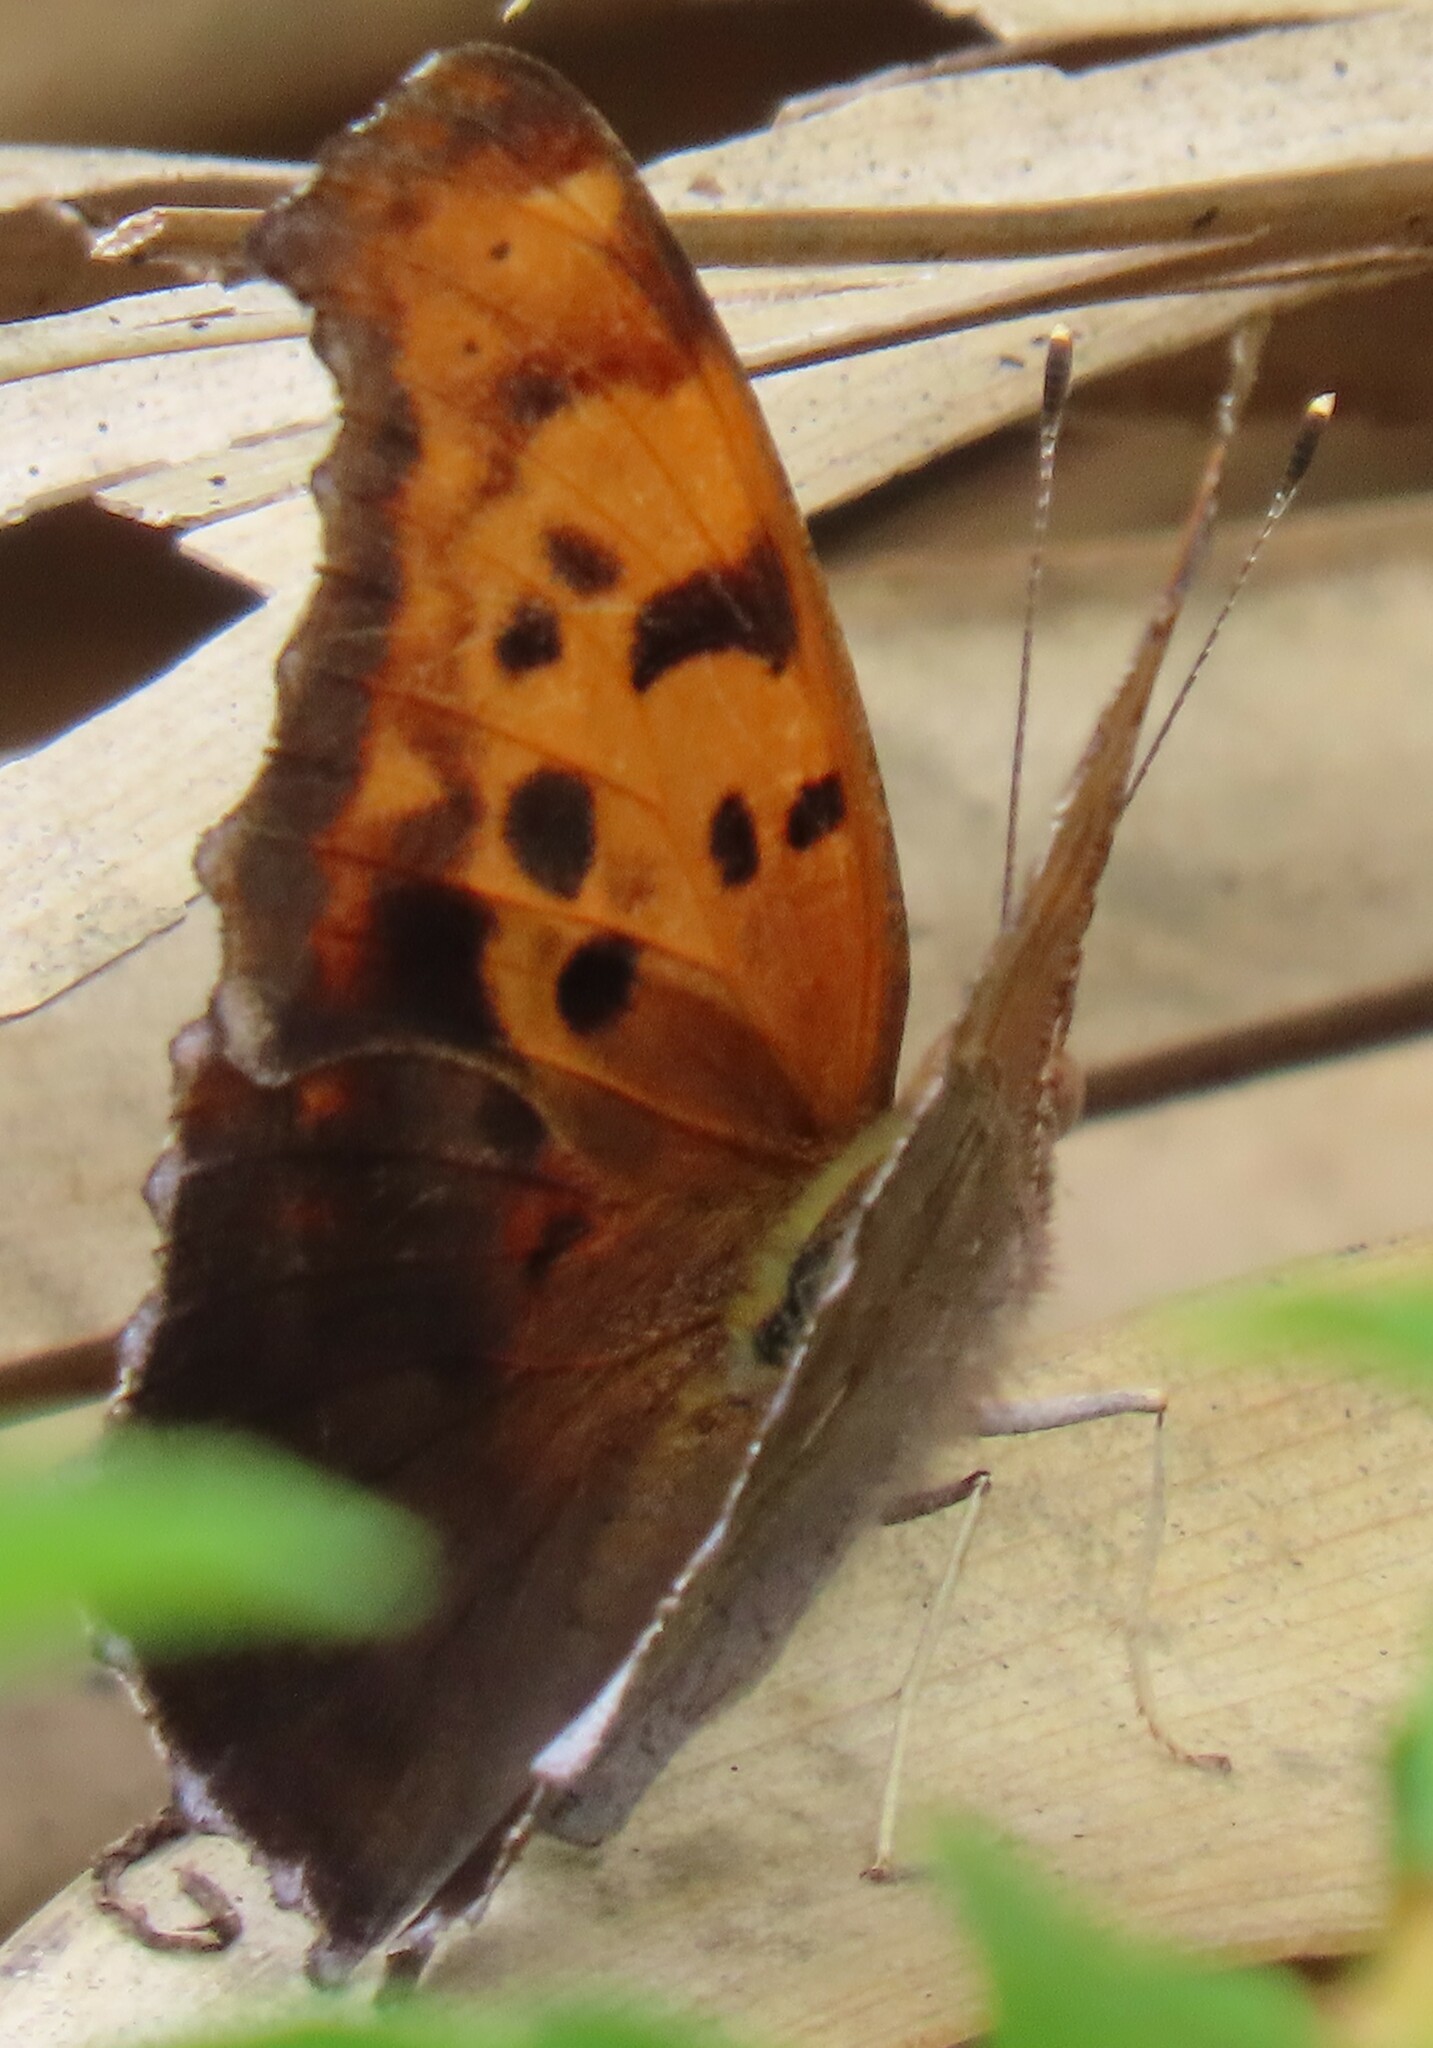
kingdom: Animalia
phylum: Arthropoda
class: Insecta
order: Lepidoptera
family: Nymphalidae
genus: Polygonia
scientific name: Polygonia interrogationis
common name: Question mark
